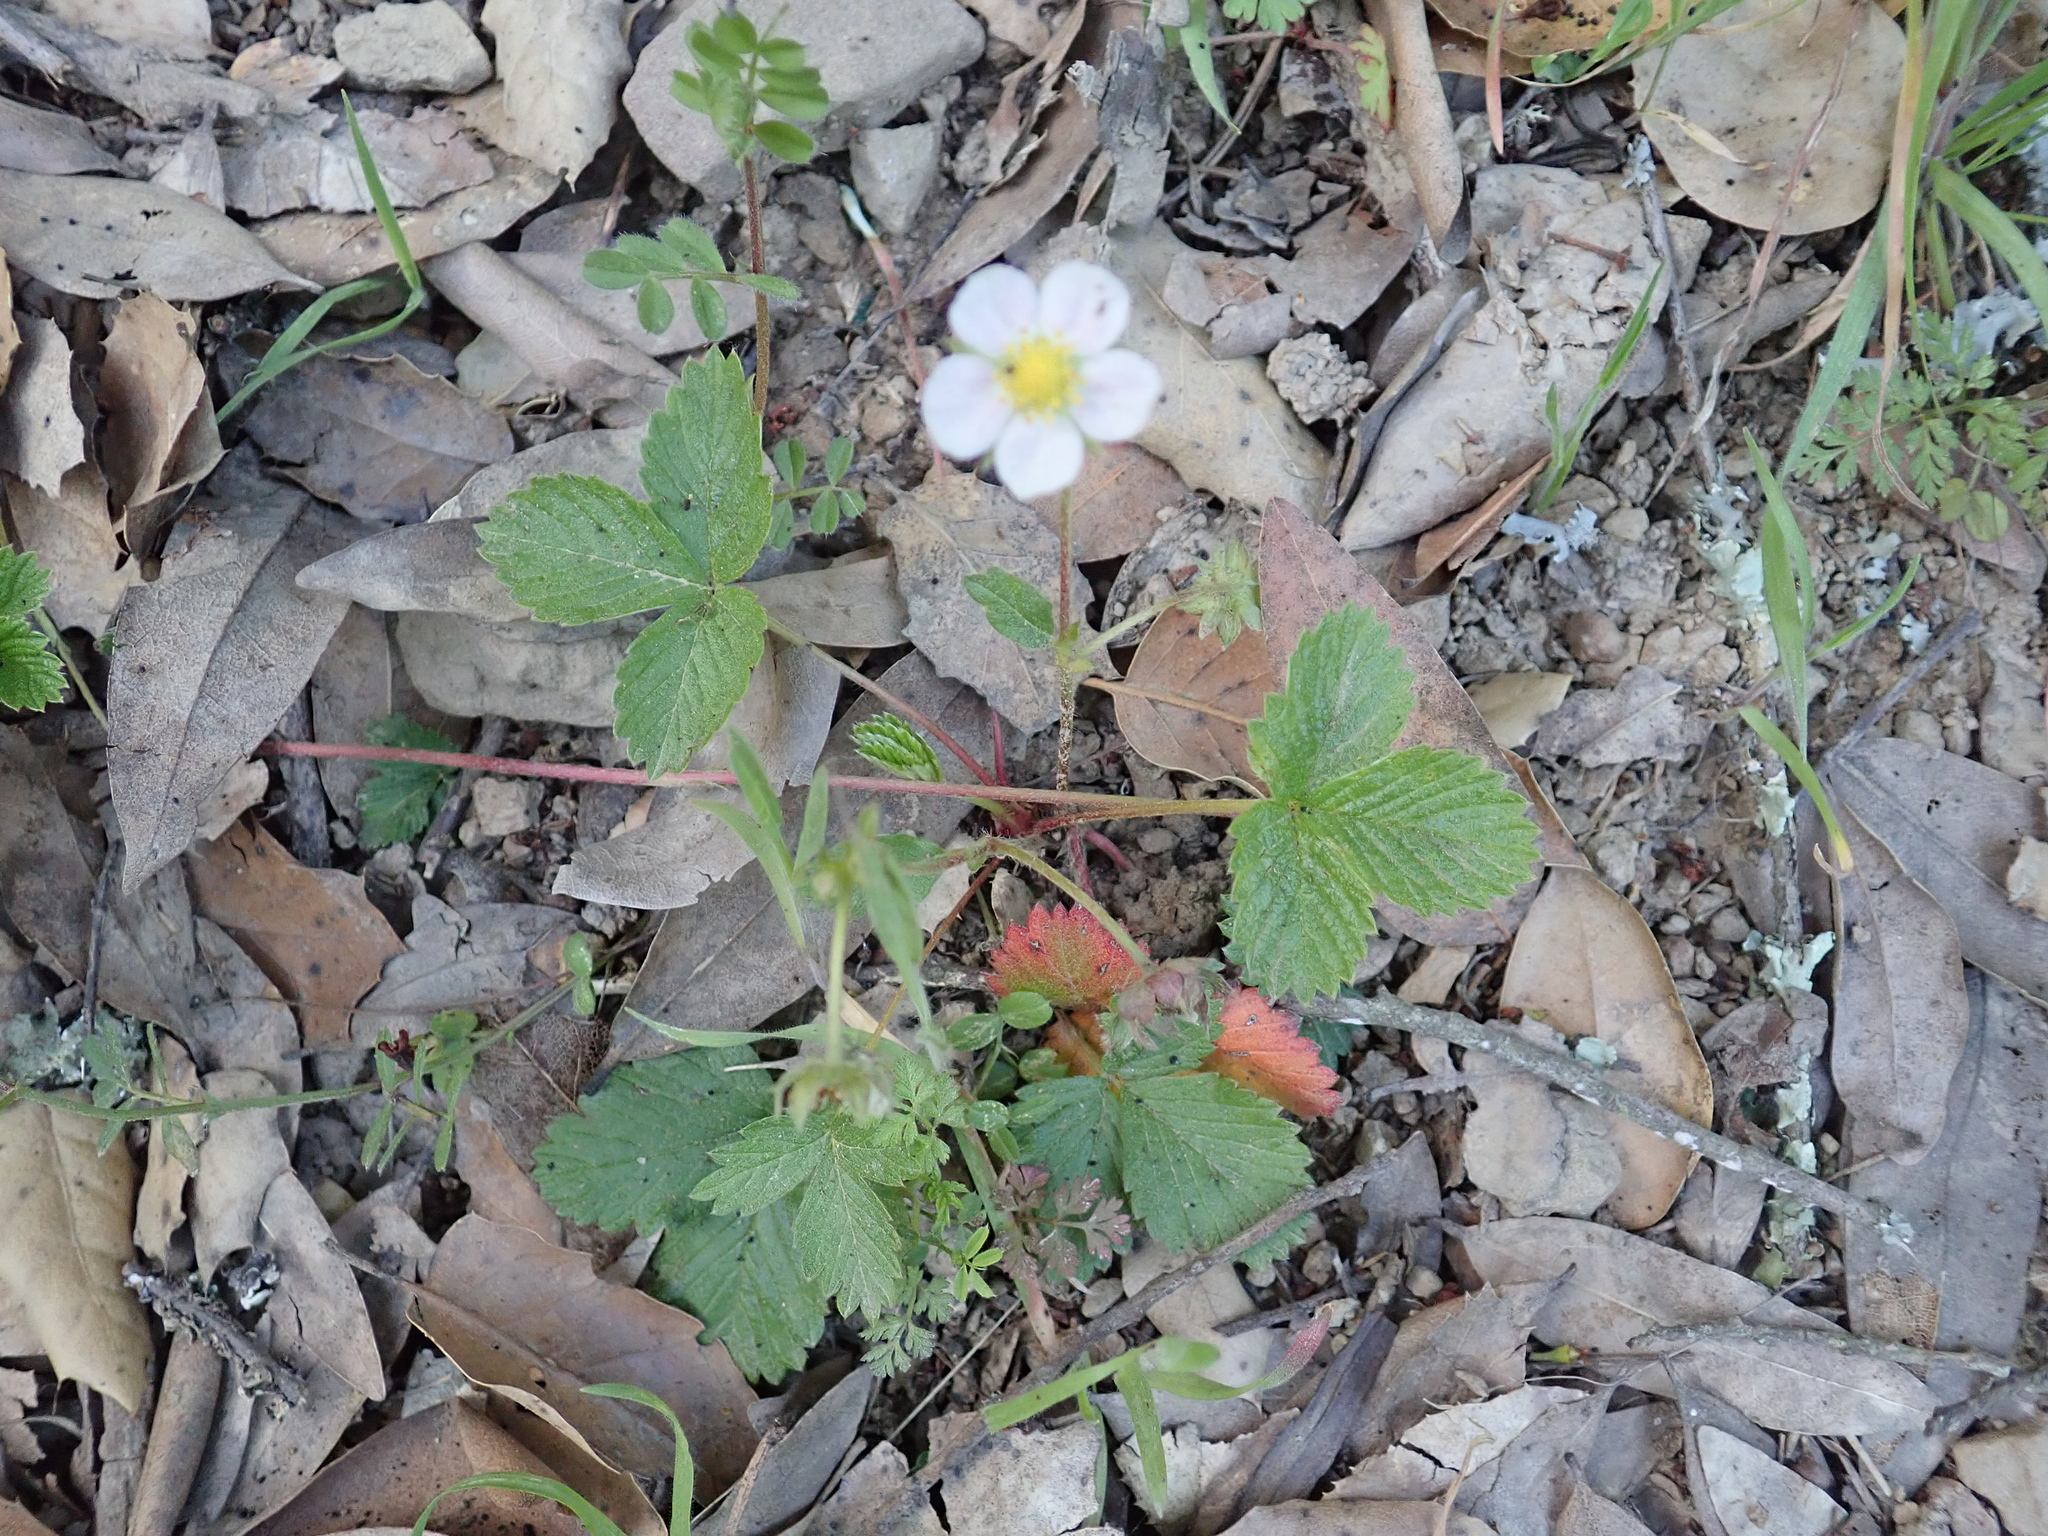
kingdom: Plantae
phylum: Tracheophyta
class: Magnoliopsida
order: Rosales
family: Rosaceae
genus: Fragaria
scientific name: Fragaria vesca
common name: Wild strawberry
